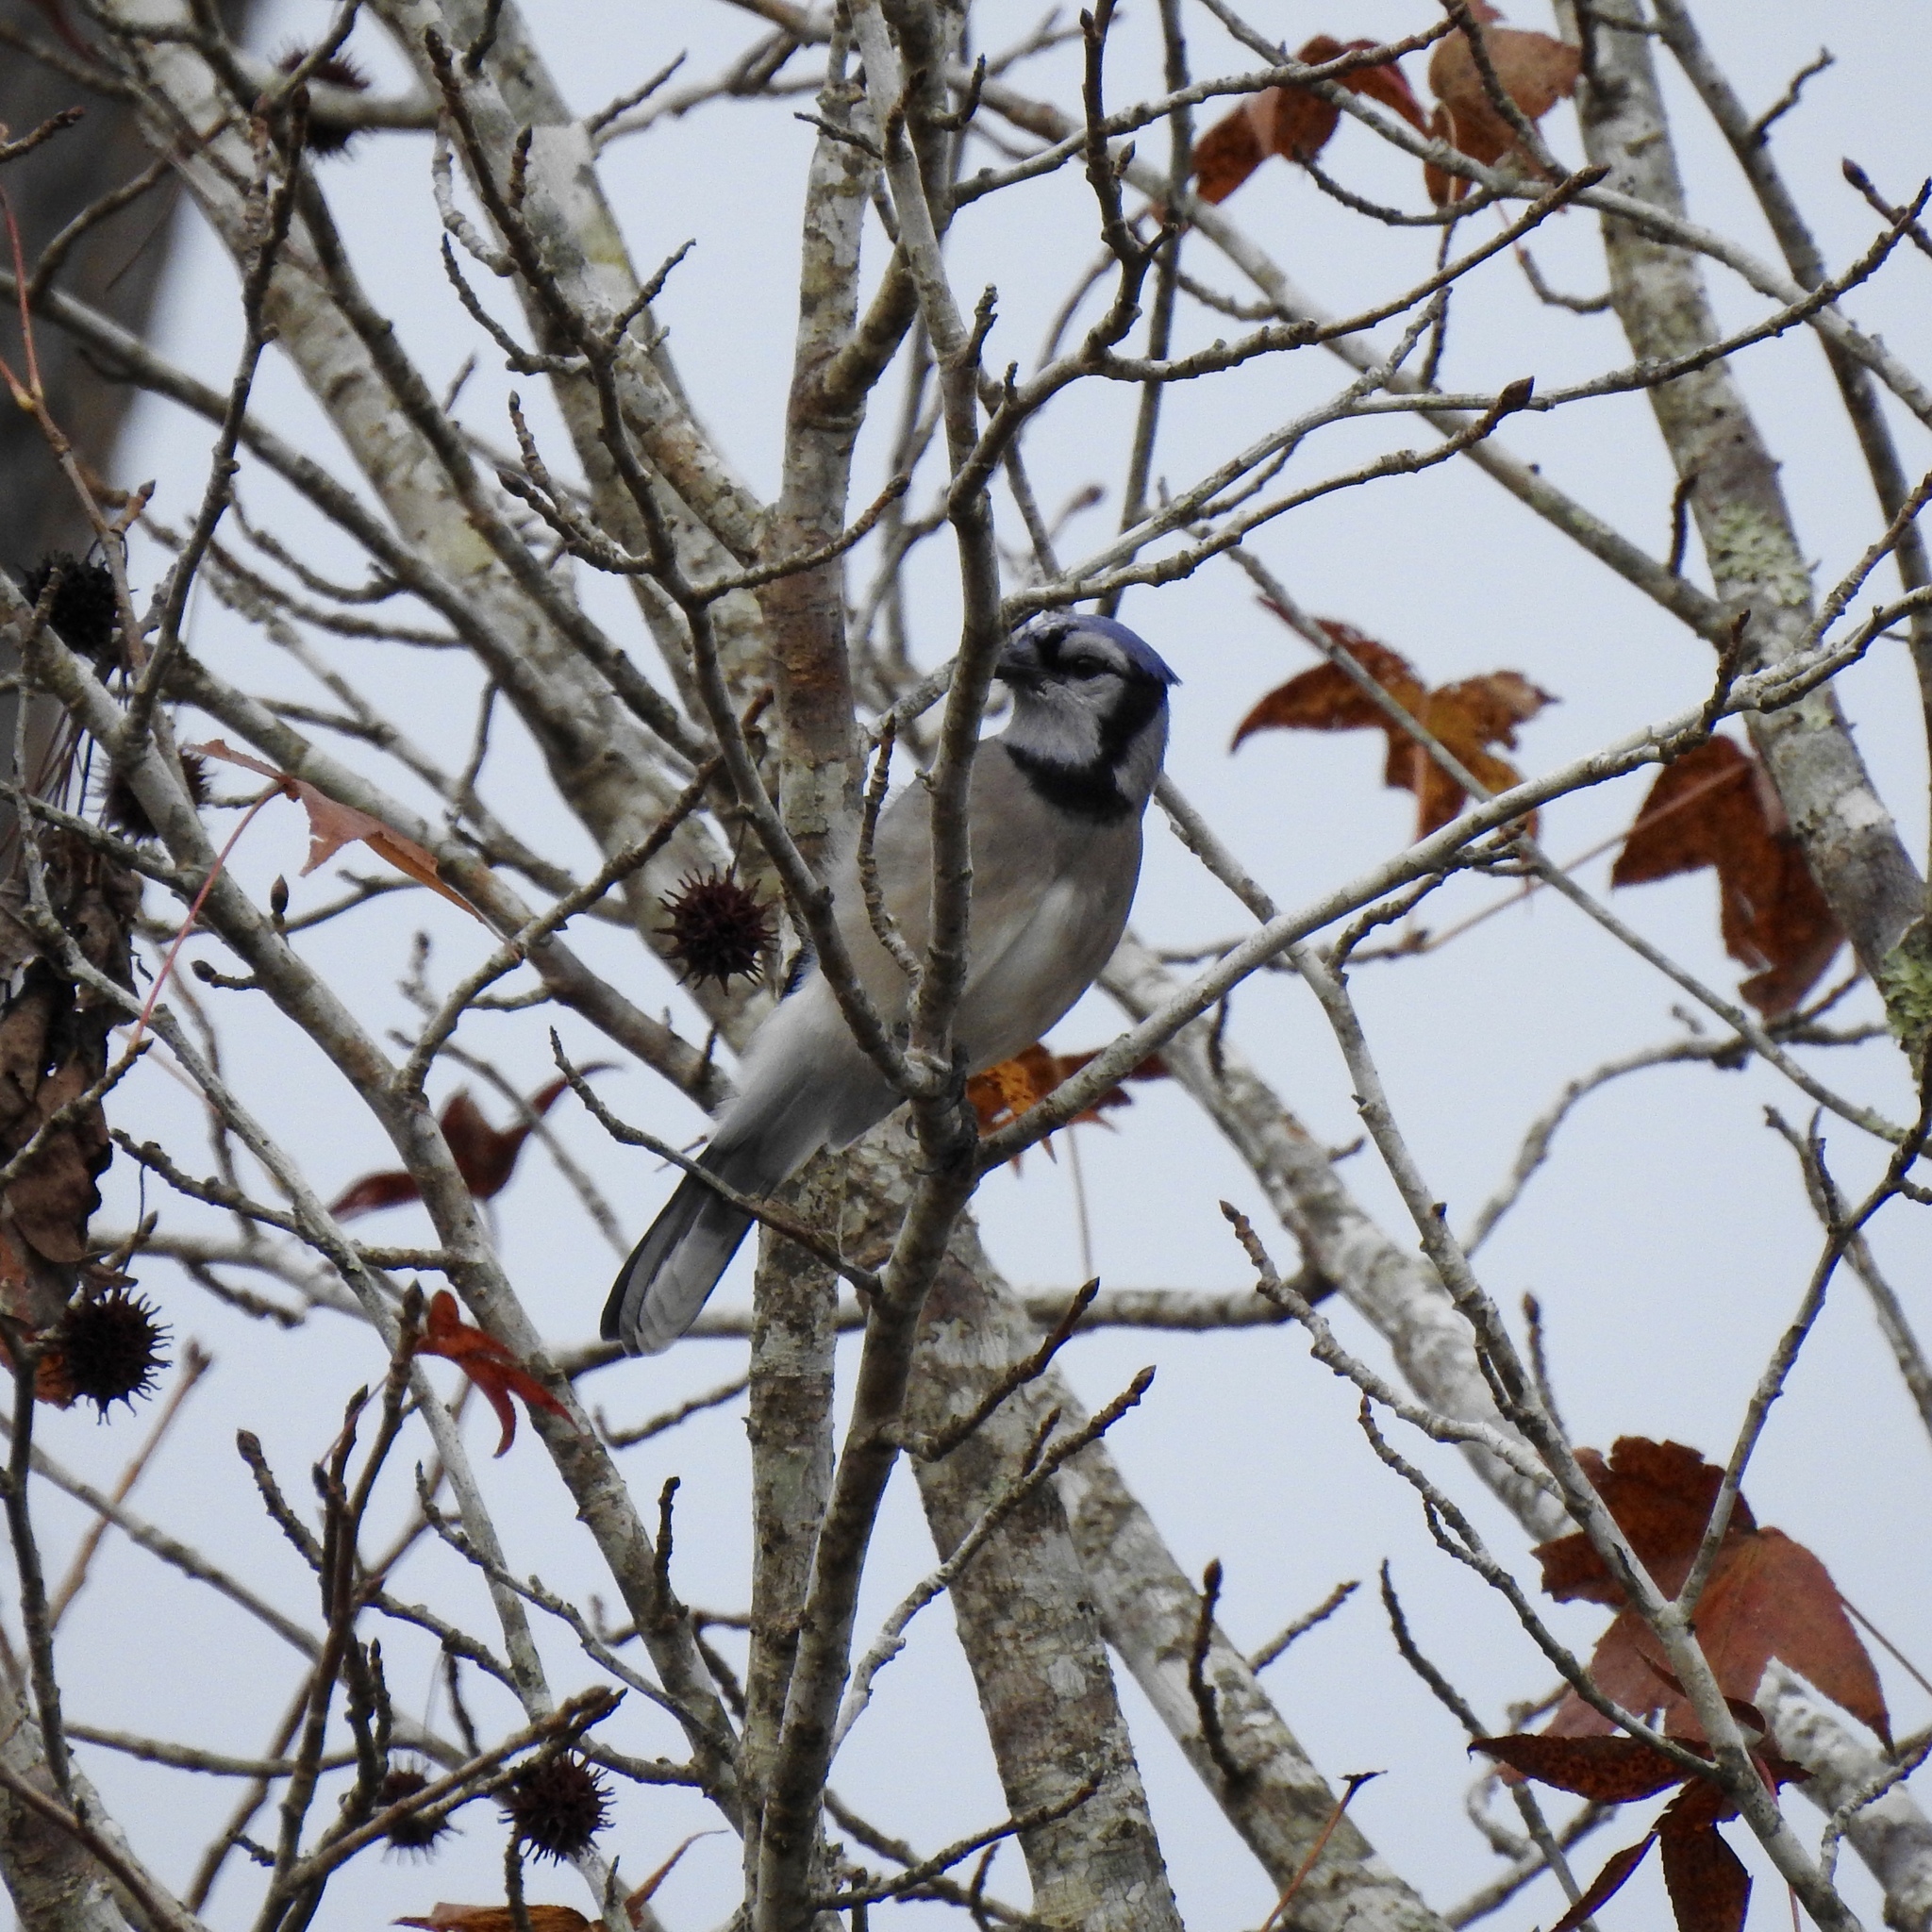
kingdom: Animalia
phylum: Chordata
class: Aves
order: Passeriformes
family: Corvidae
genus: Cyanocitta
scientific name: Cyanocitta cristata
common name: Blue jay
